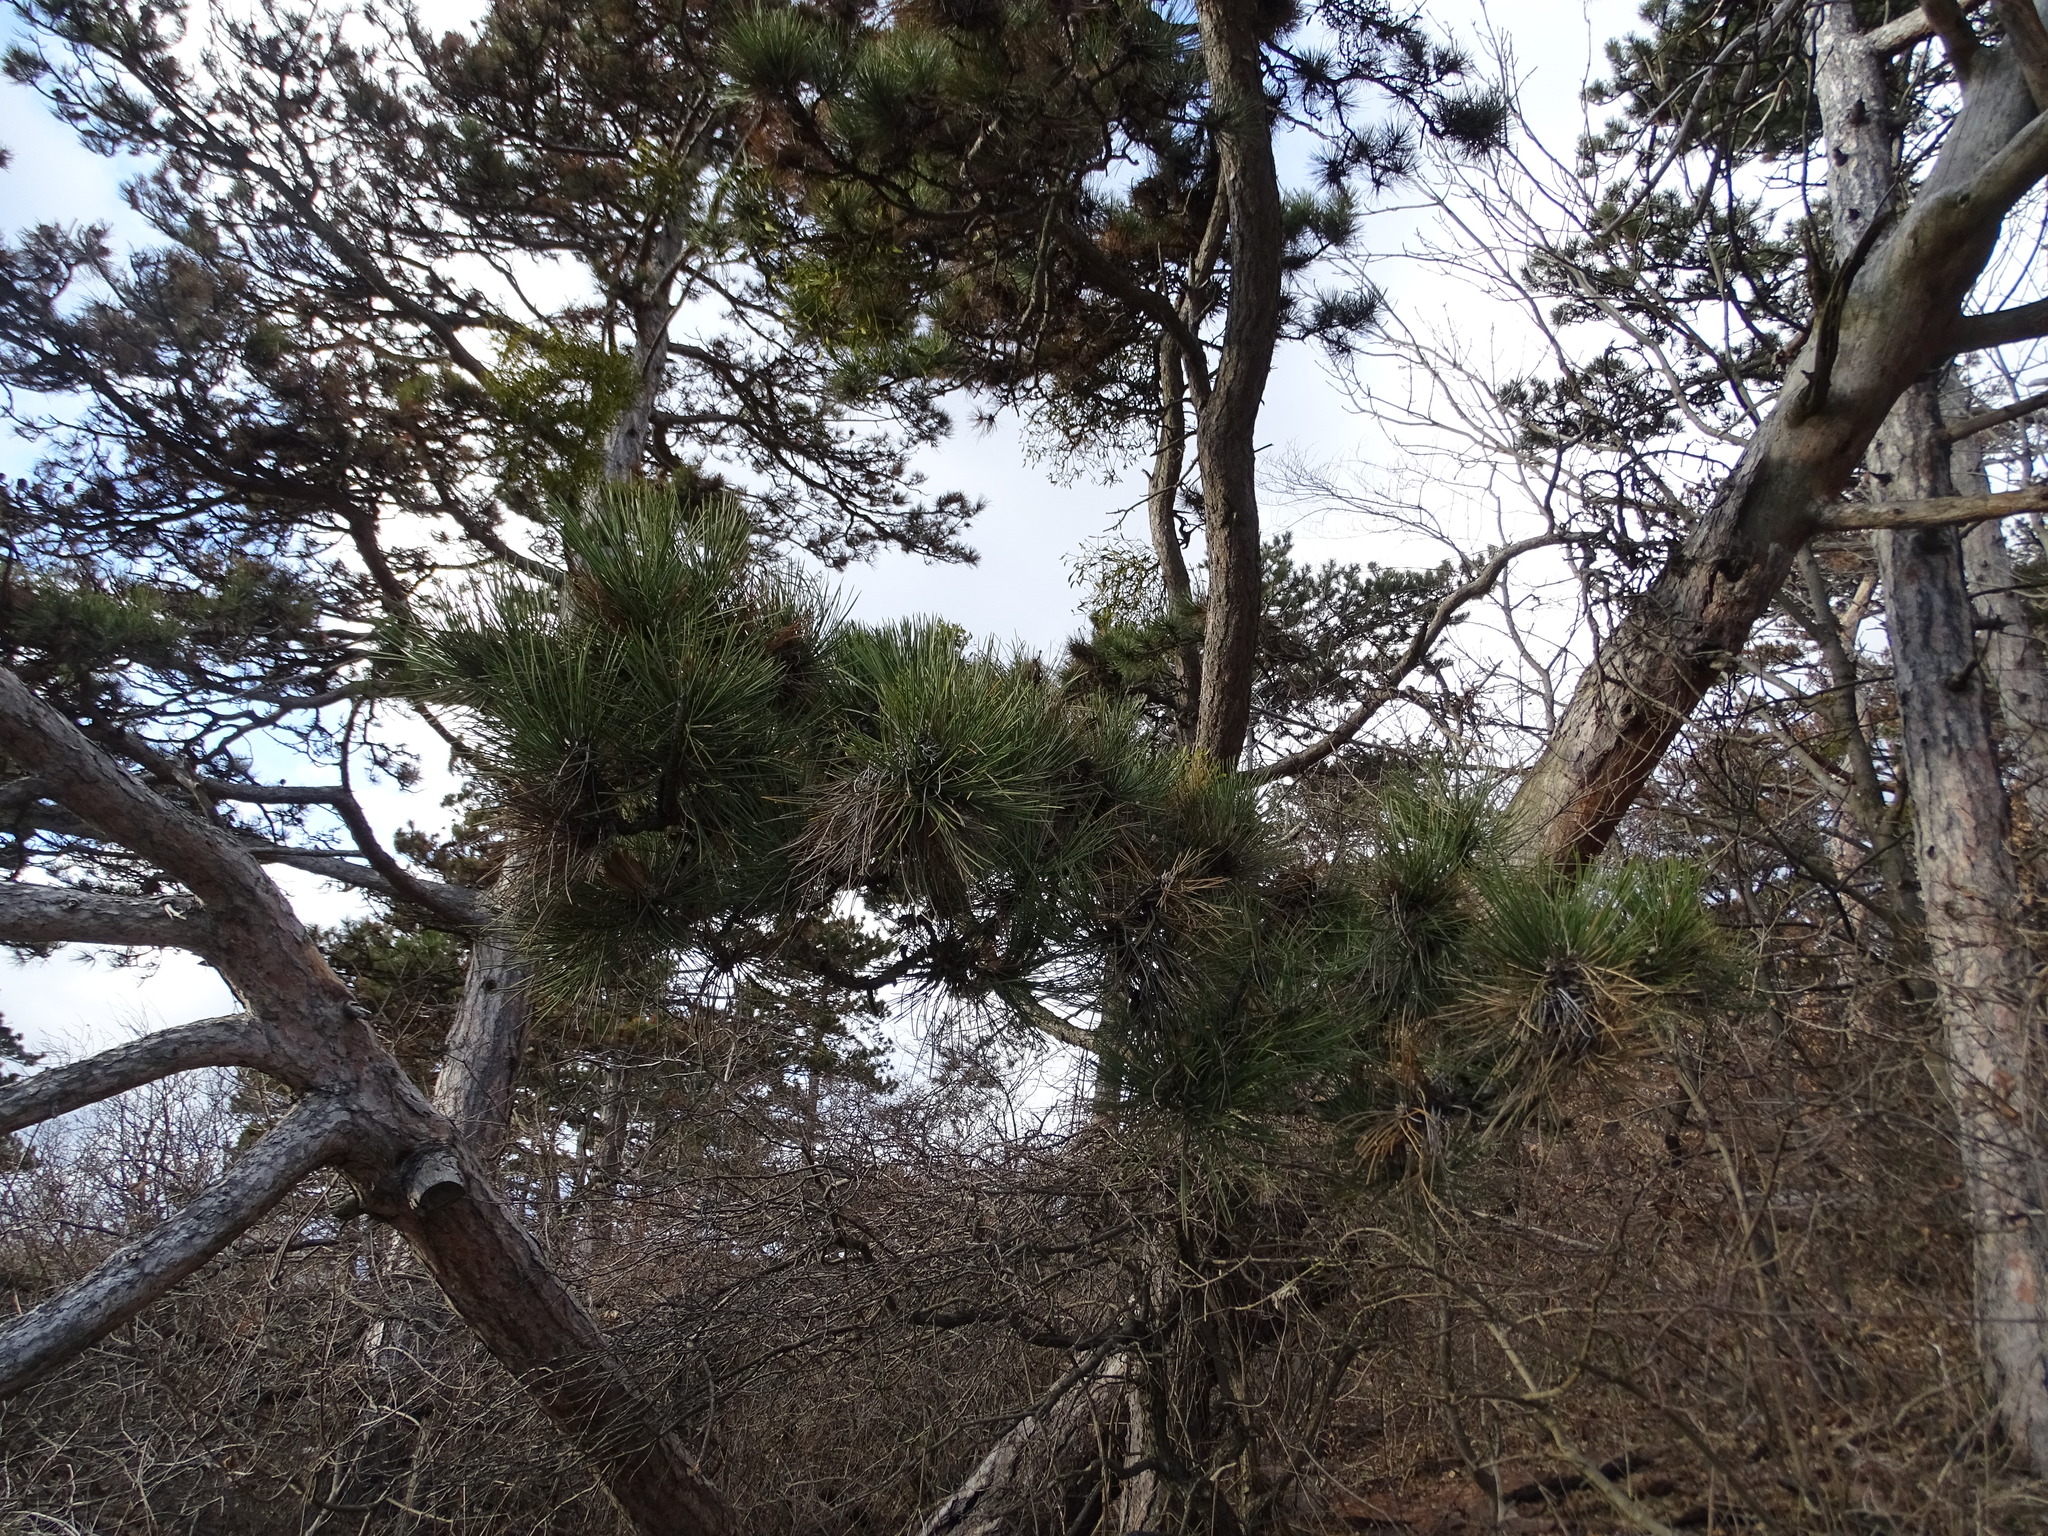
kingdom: Plantae
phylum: Tracheophyta
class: Pinopsida
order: Pinales
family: Pinaceae
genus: Pinus
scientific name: Pinus nigra
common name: Austrian pine
